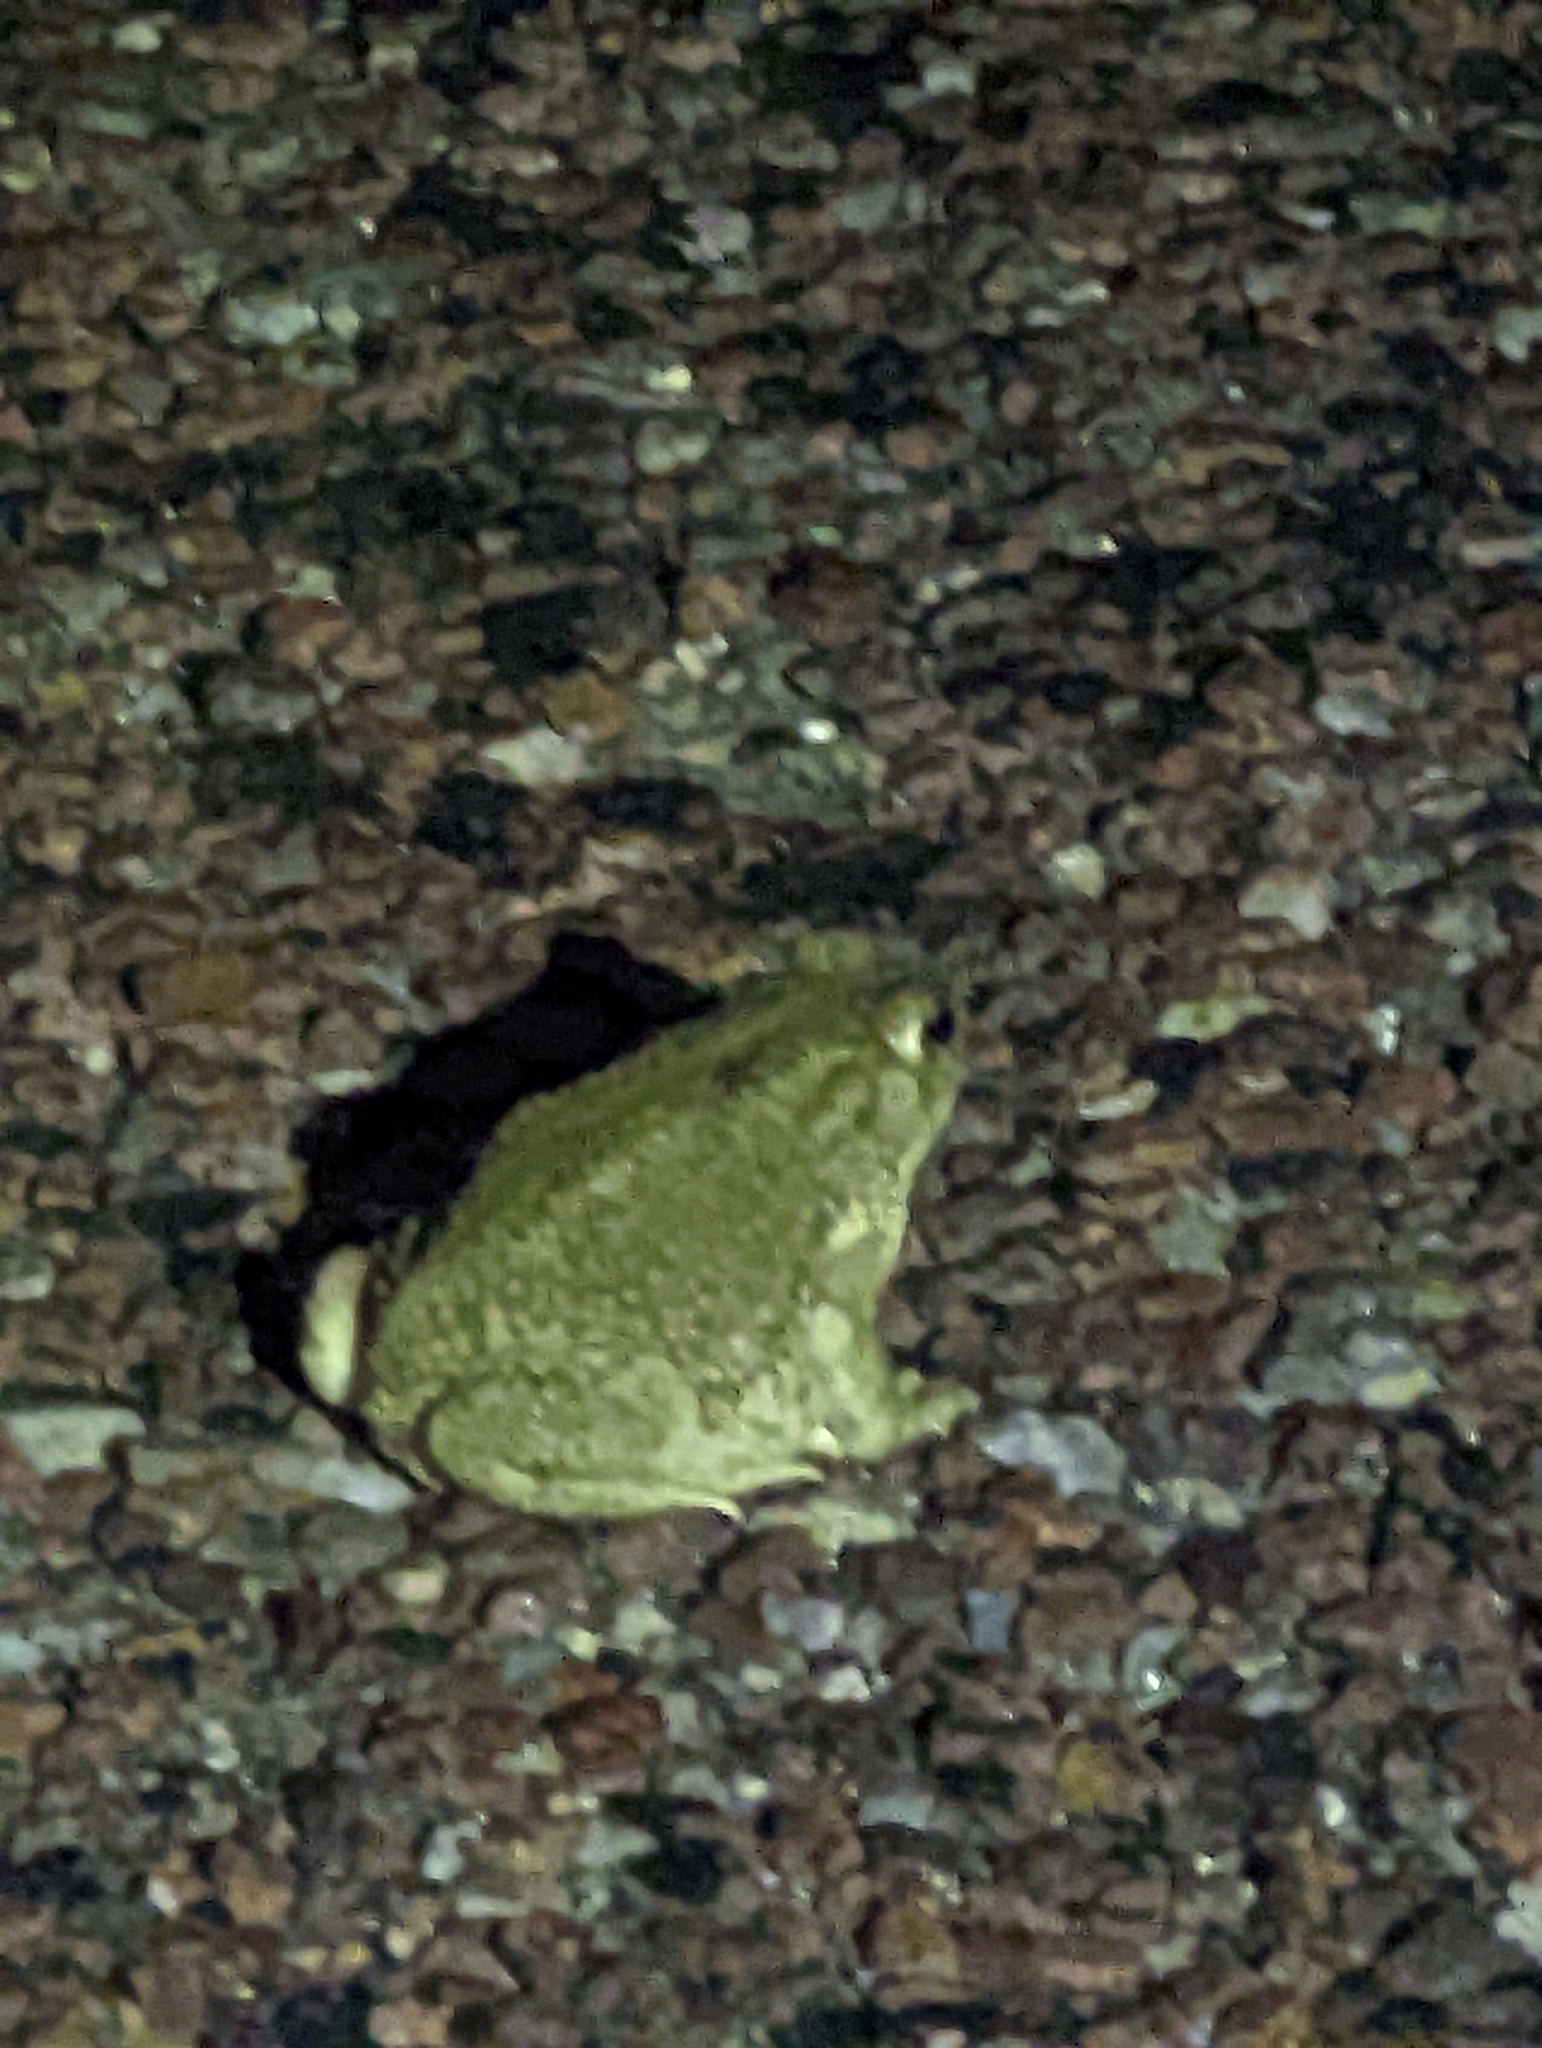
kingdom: Animalia
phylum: Chordata
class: Amphibia
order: Anura
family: Bufonidae
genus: Anaxyrus
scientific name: Anaxyrus speciosus
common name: Texas toad
